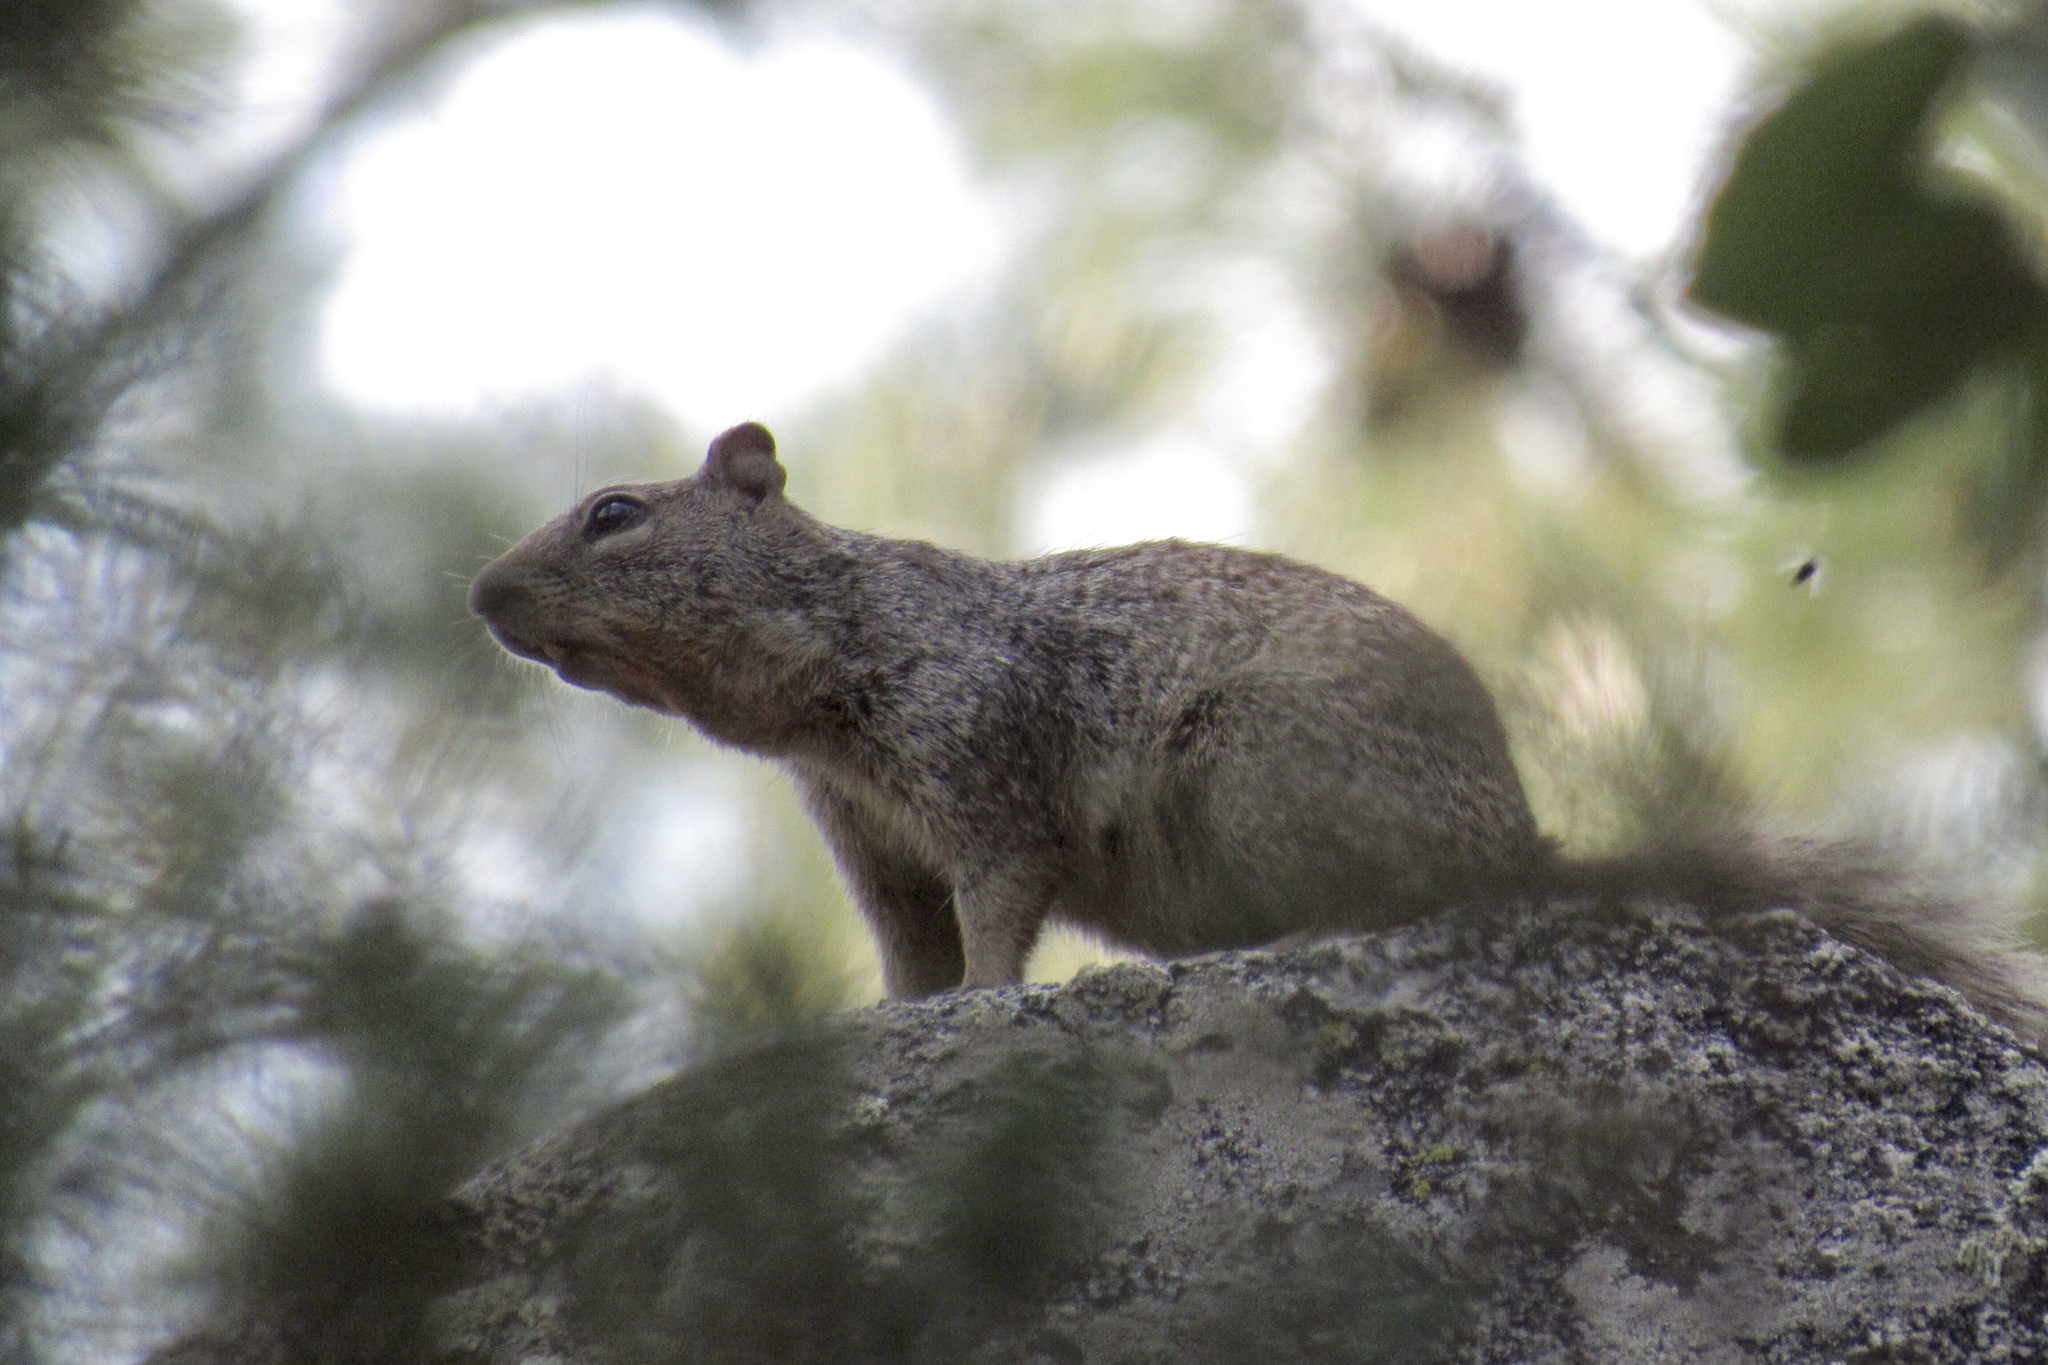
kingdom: Animalia
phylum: Chordata
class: Mammalia
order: Rodentia
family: Sciuridae
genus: Otospermophilus
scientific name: Otospermophilus variegatus
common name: Rock squirrel
